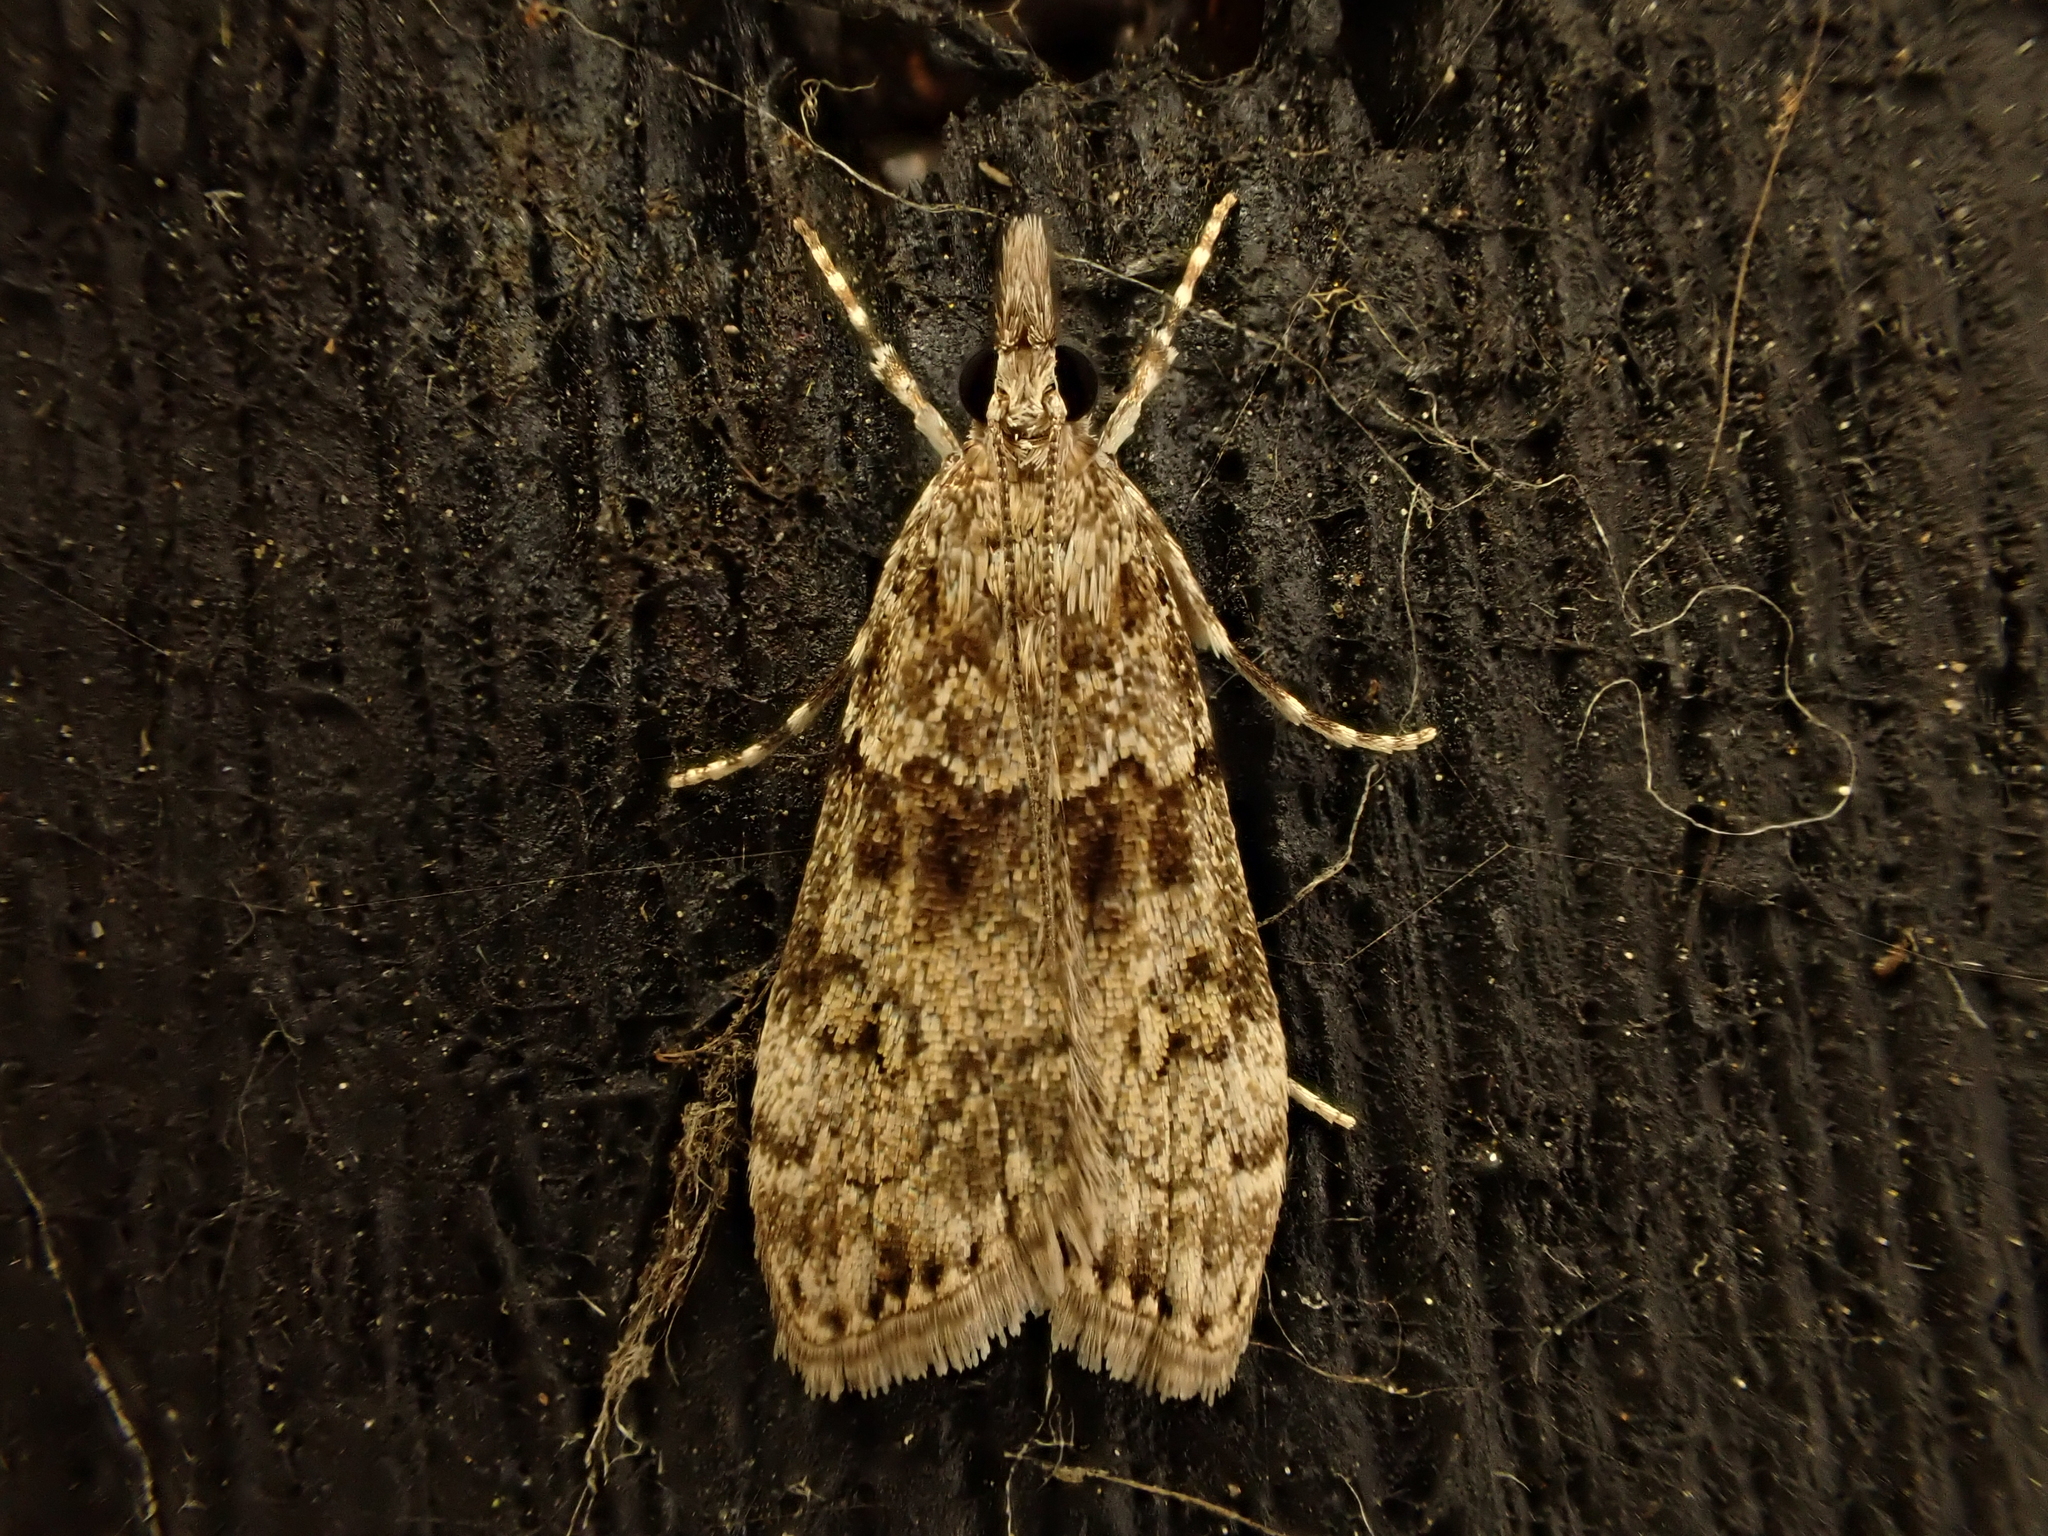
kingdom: Animalia
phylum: Arthropoda
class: Insecta
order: Lepidoptera
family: Crambidae
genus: Eudonia
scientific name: Eudonia subditella
